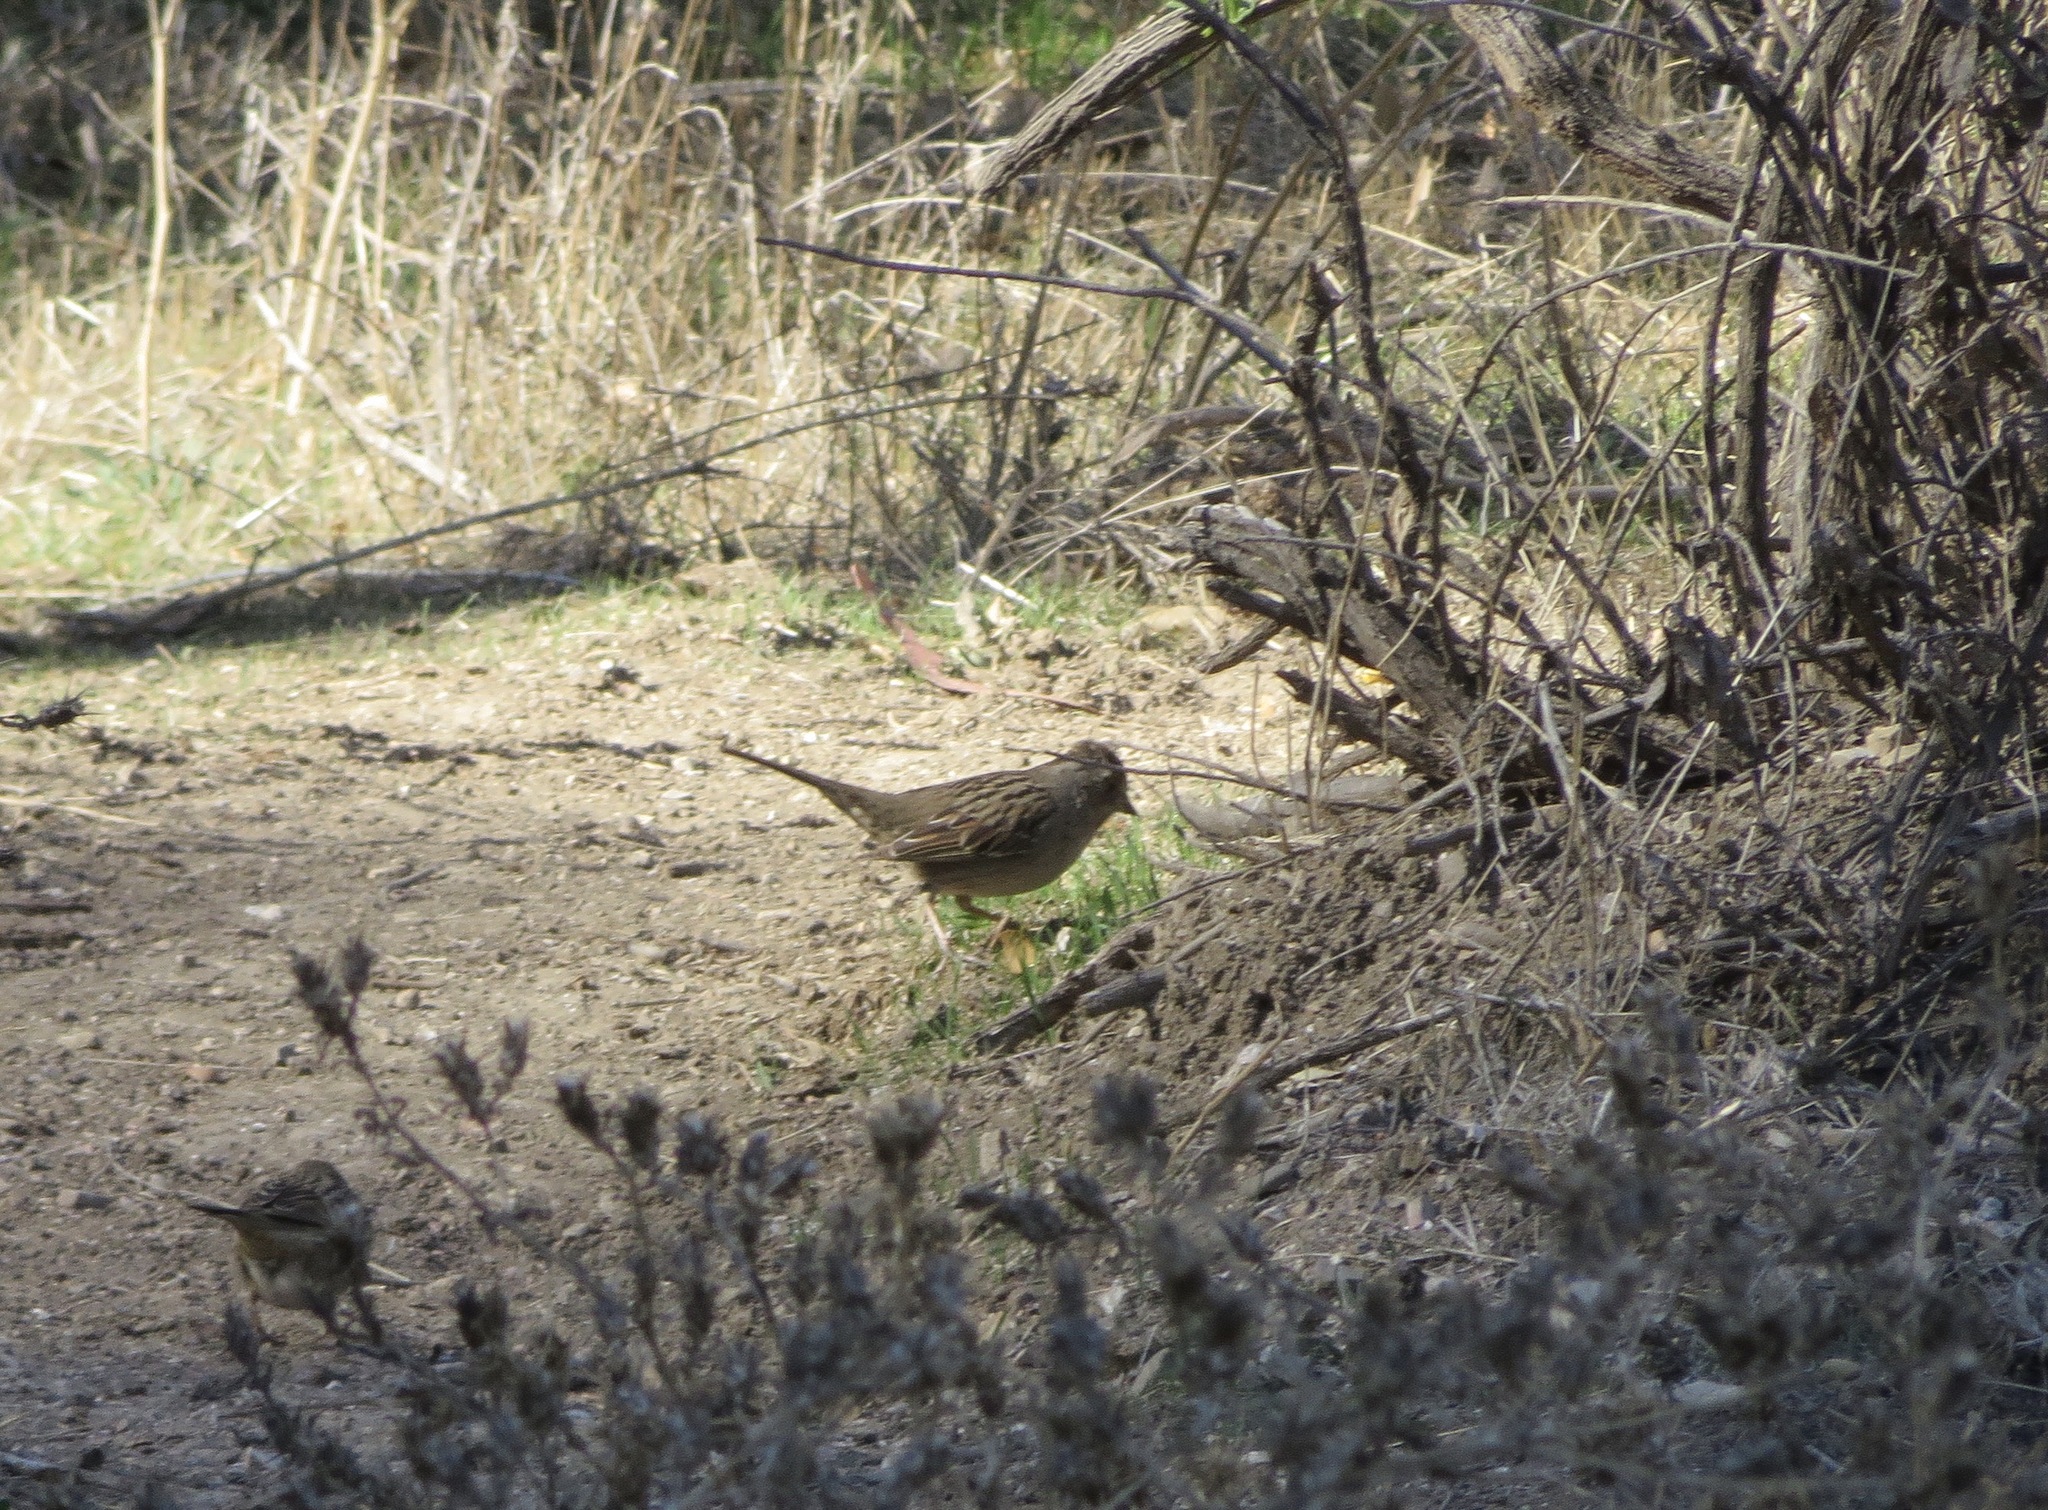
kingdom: Animalia
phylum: Chordata
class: Aves
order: Passeriformes
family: Passerellidae
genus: Zonotrichia
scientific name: Zonotrichia atricapilla
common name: Golden-crowned sparrow
